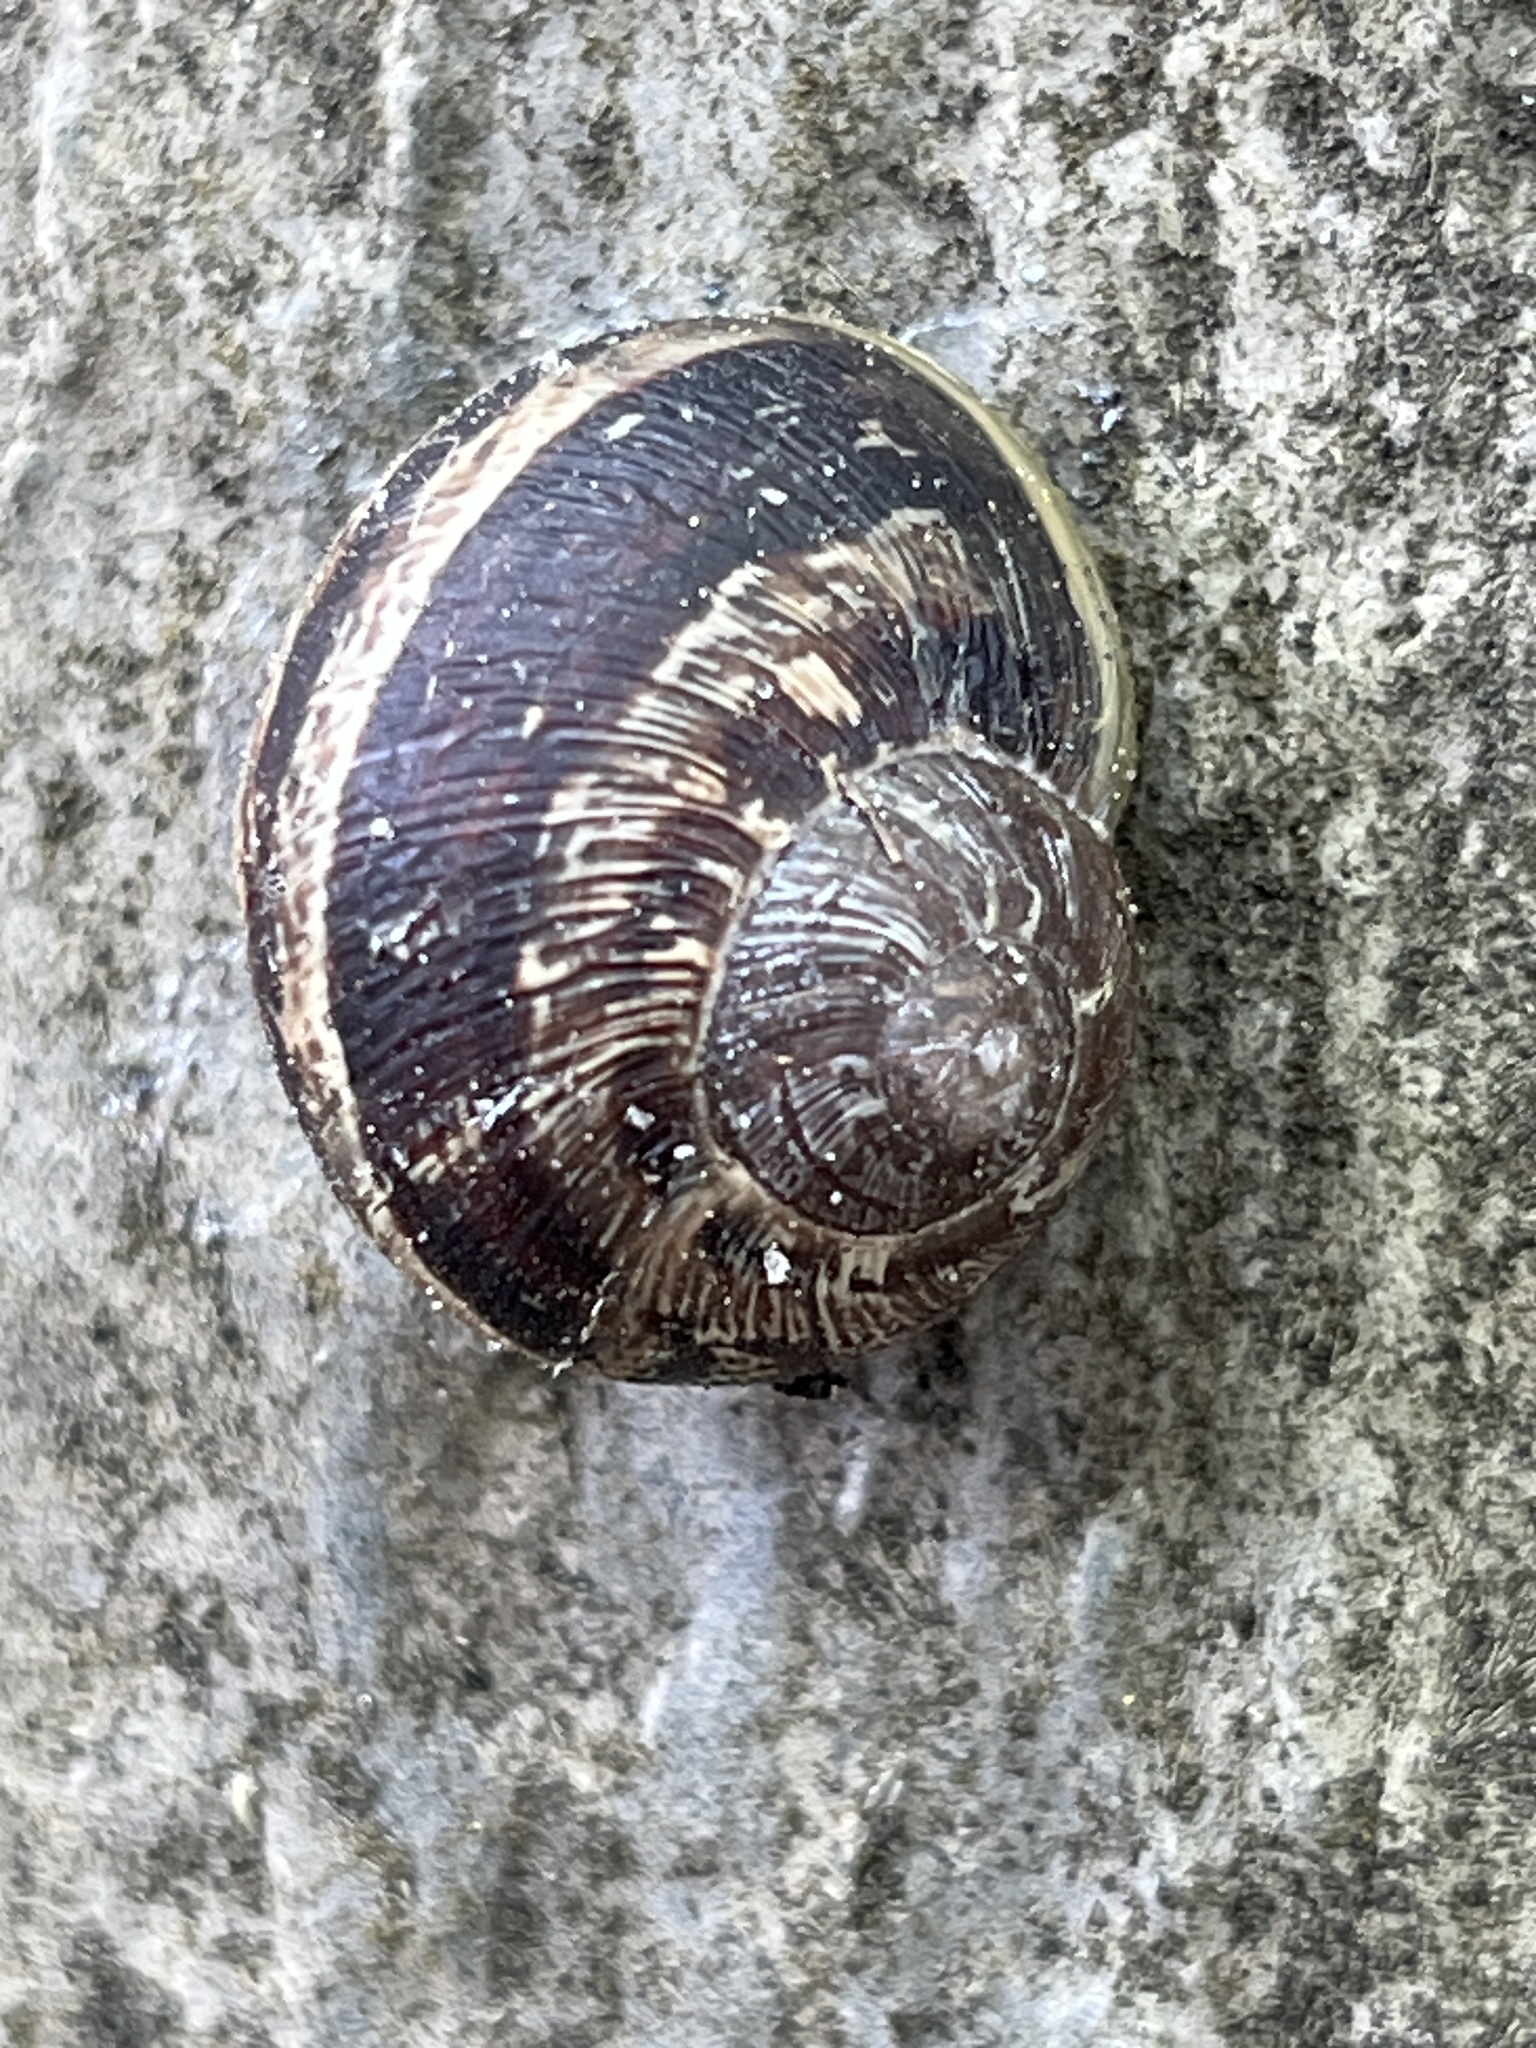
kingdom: Animalia
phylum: Mollusca
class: Gastropoda
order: Stylommatophora
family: Helicidae
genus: Cornu
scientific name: Cornu aspersum
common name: Brown garden snail
